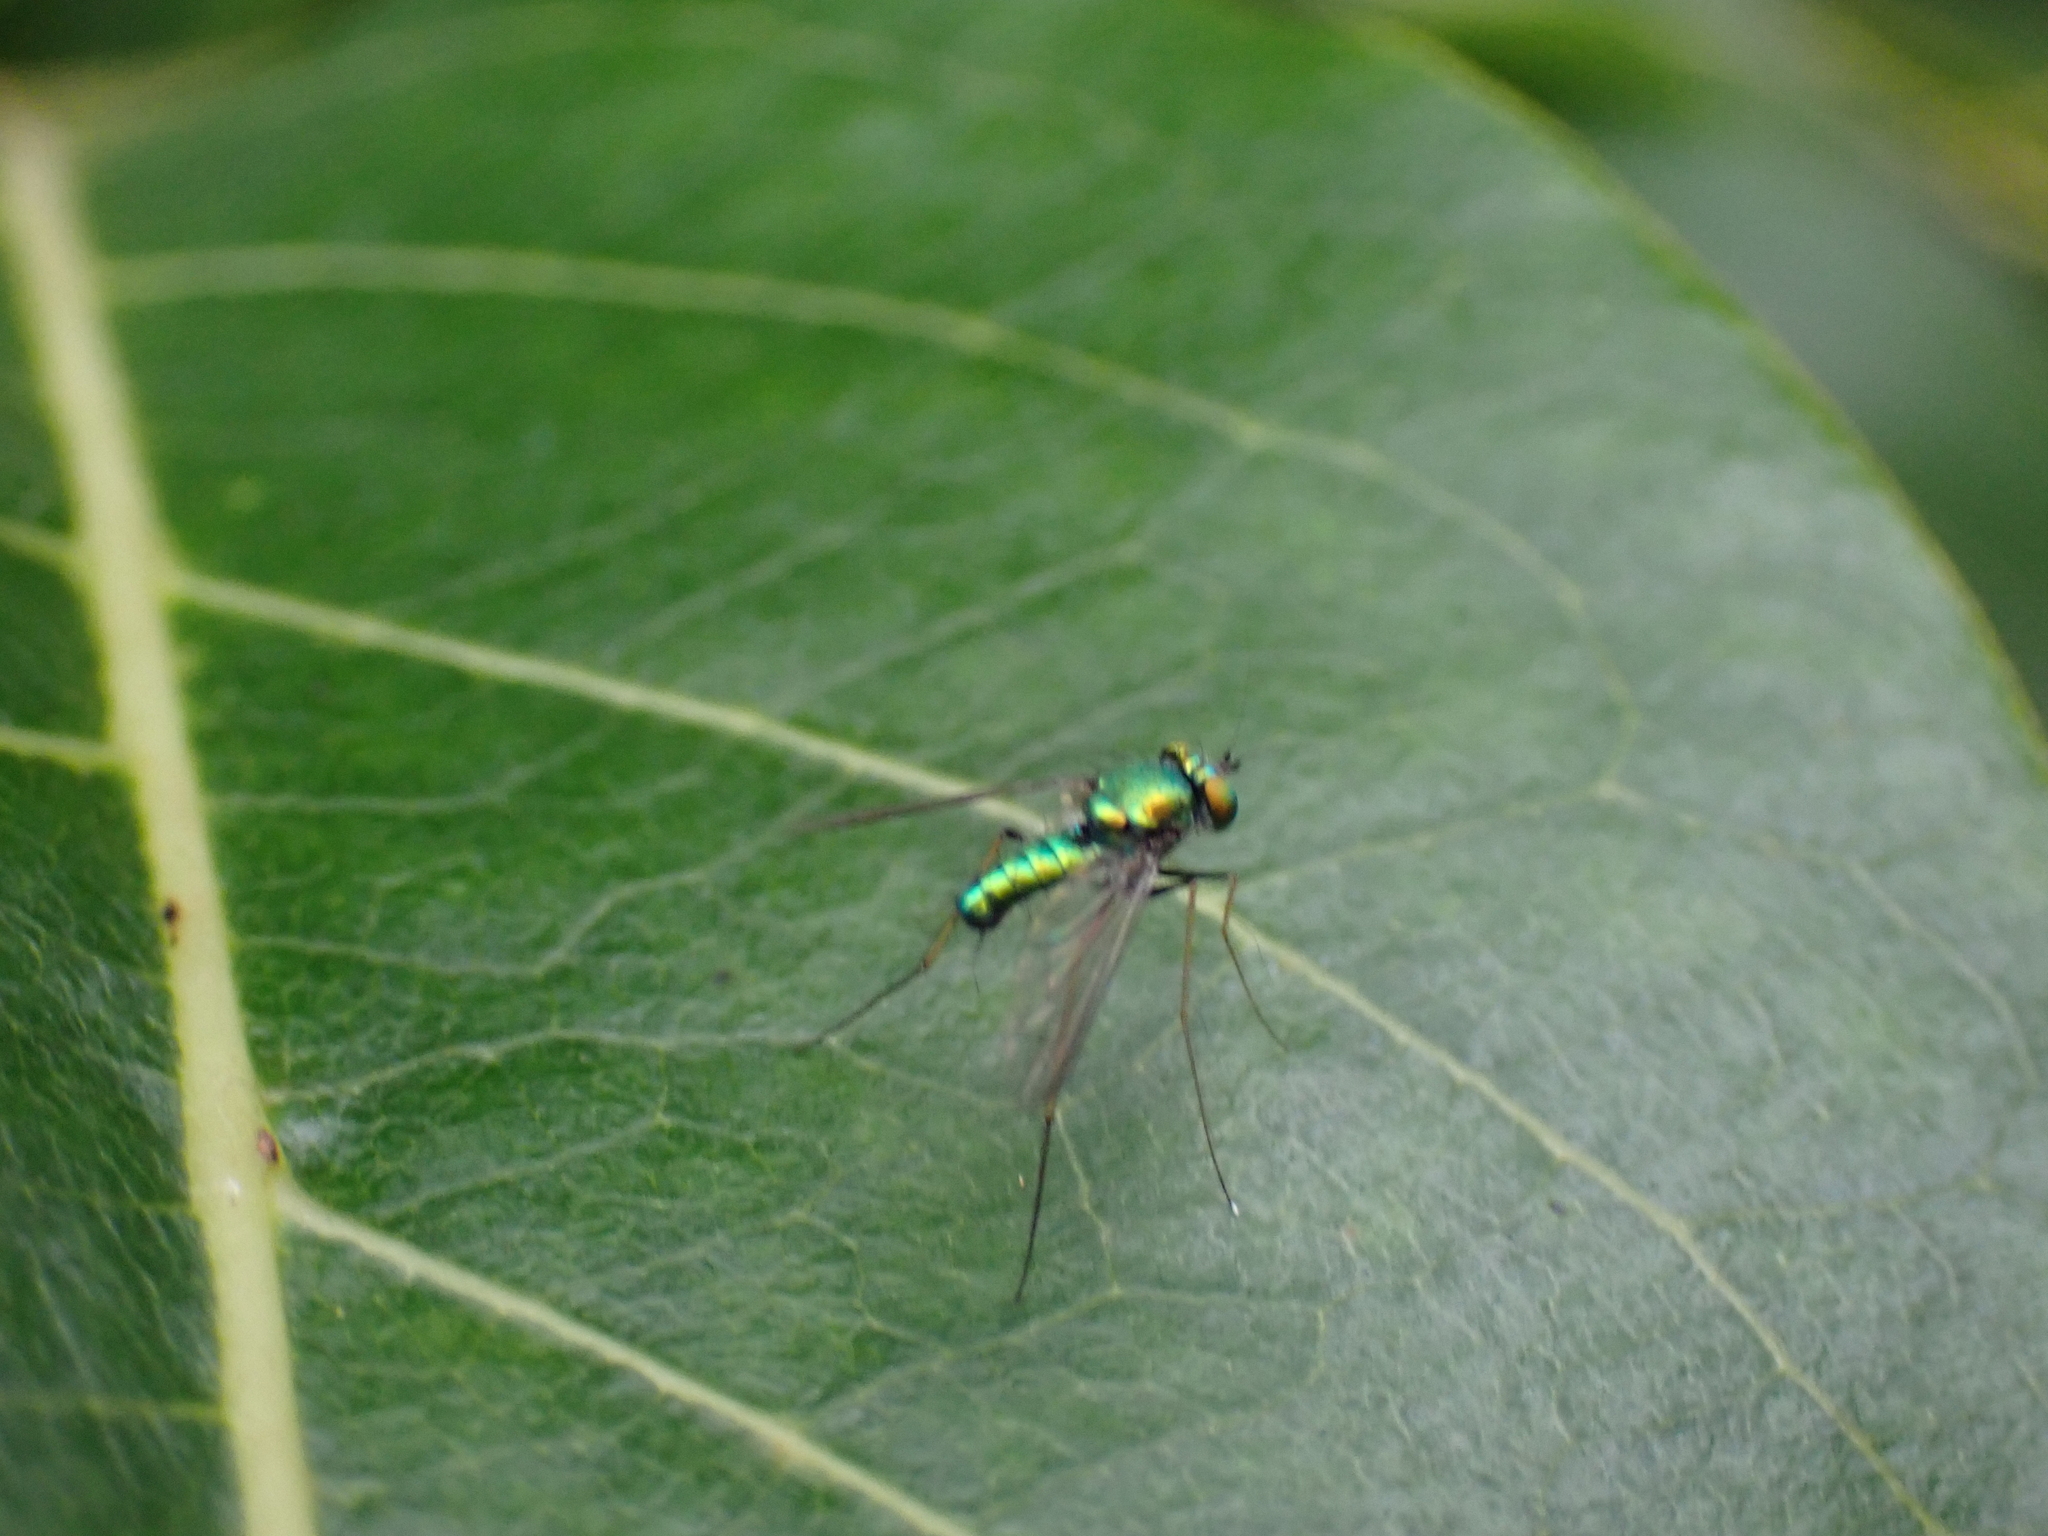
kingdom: Animalia
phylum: Arthropoda
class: Insecta
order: Diptera
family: Dolichopodidae
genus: Condylostylus
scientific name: Condylostylus comatus
